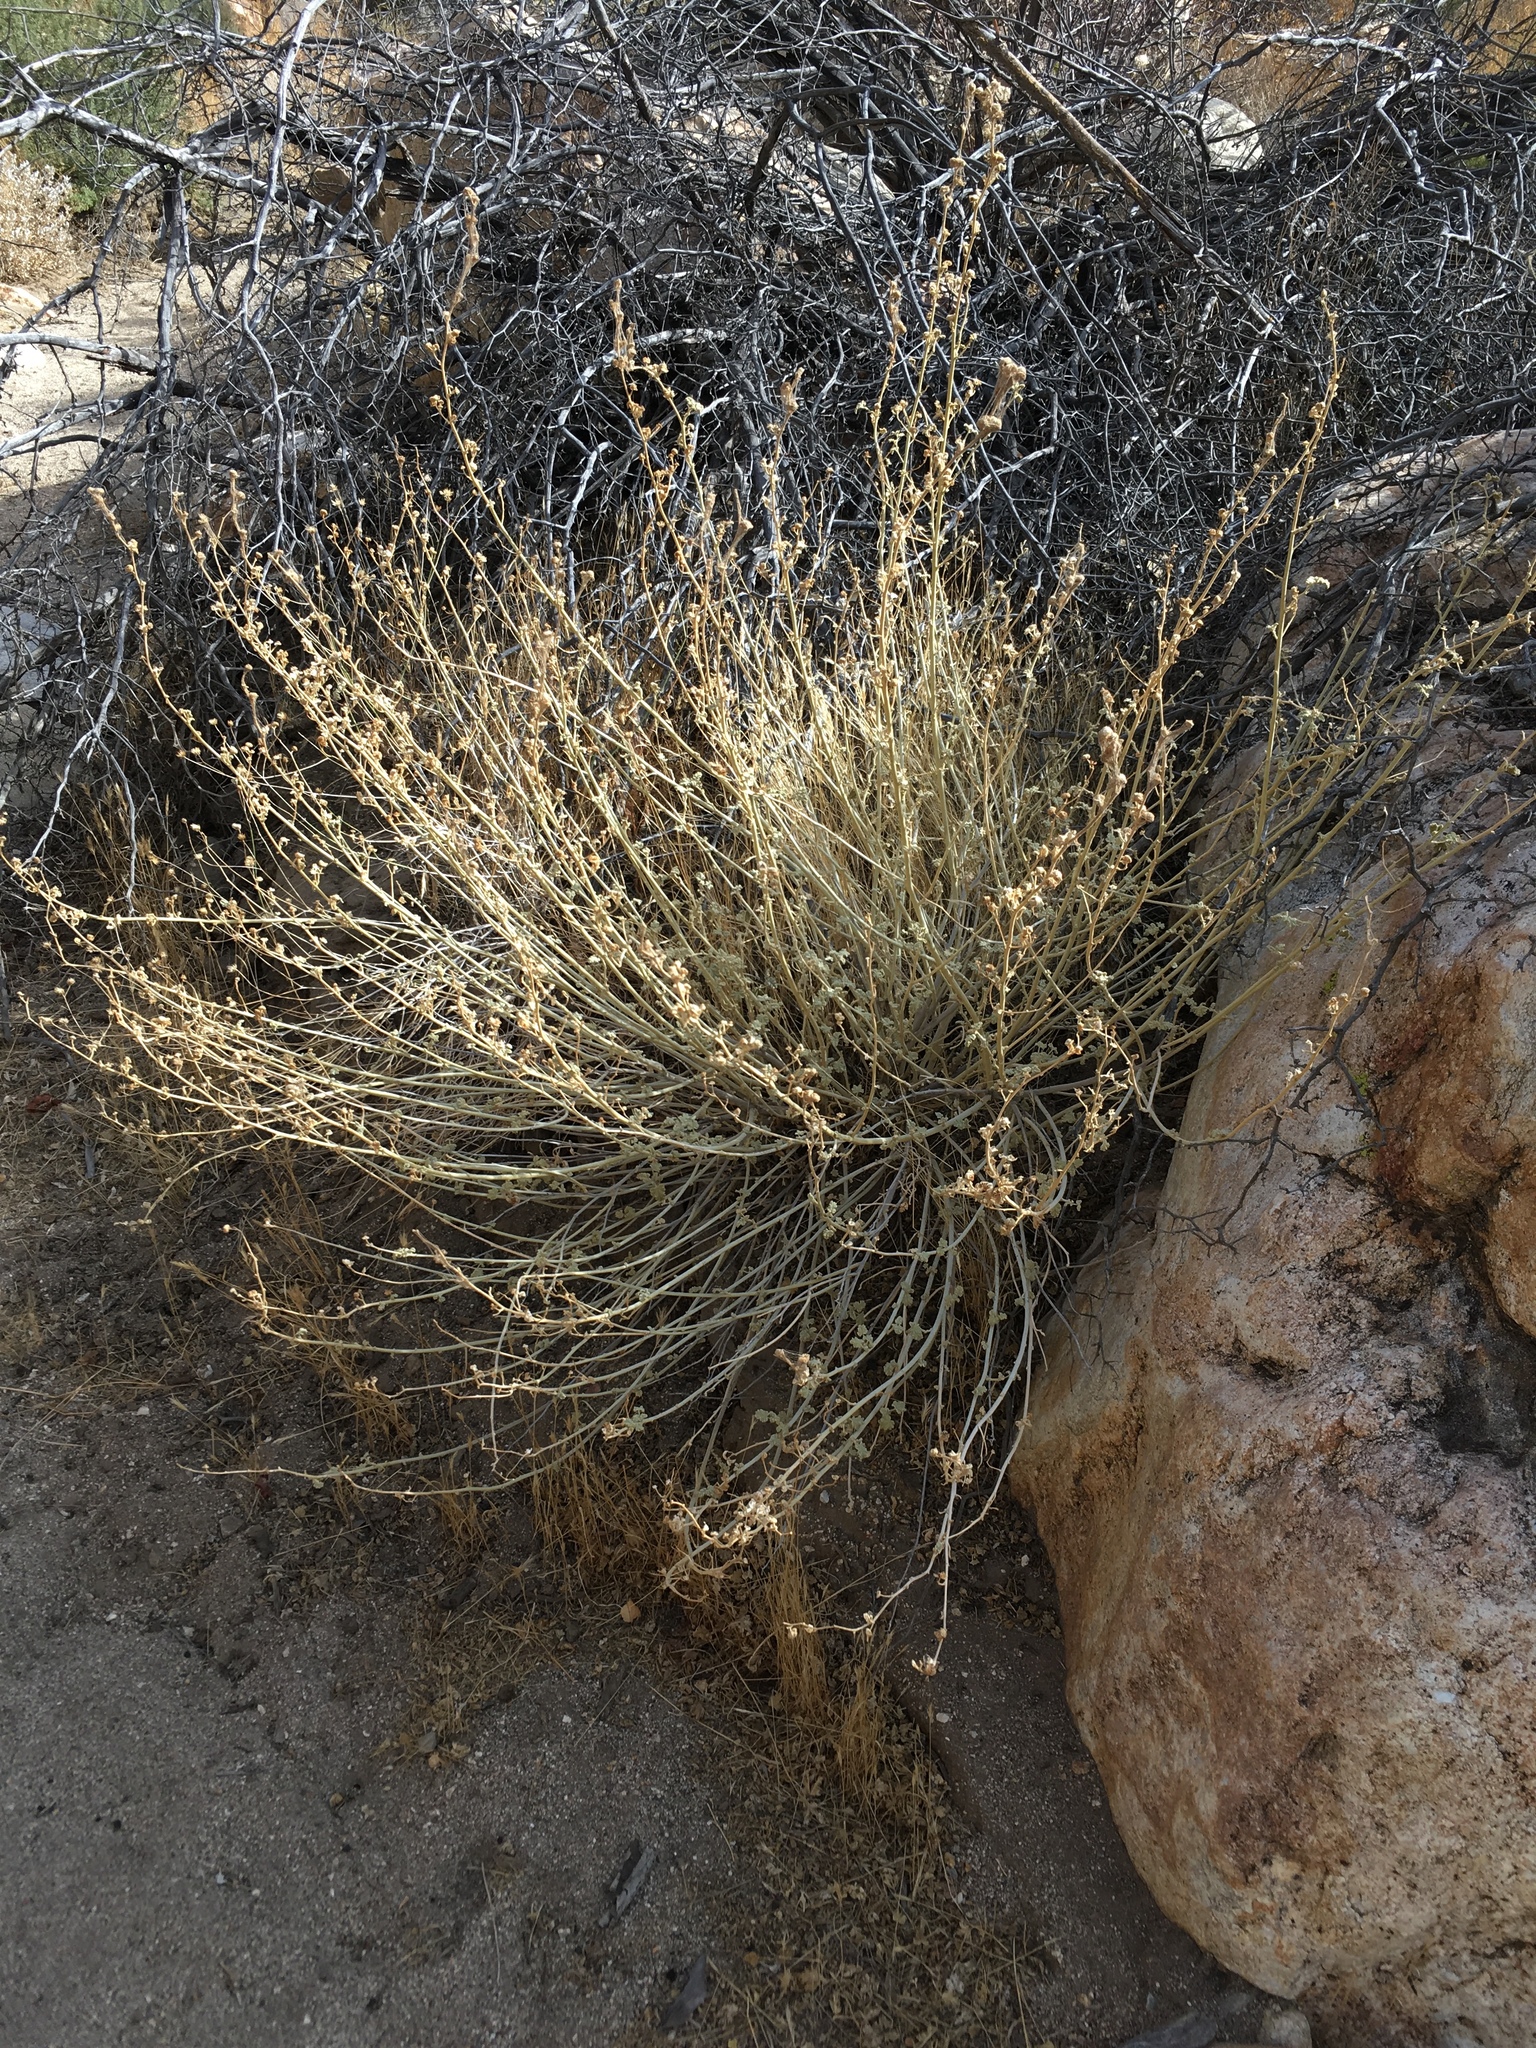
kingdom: Plantae
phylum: Tracheophyta
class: Magnoliopsida
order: Malvales
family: Malvaceae
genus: Sphaeralcea
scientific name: Sphaeralcea ambigua
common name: Apricot globe-mallow
